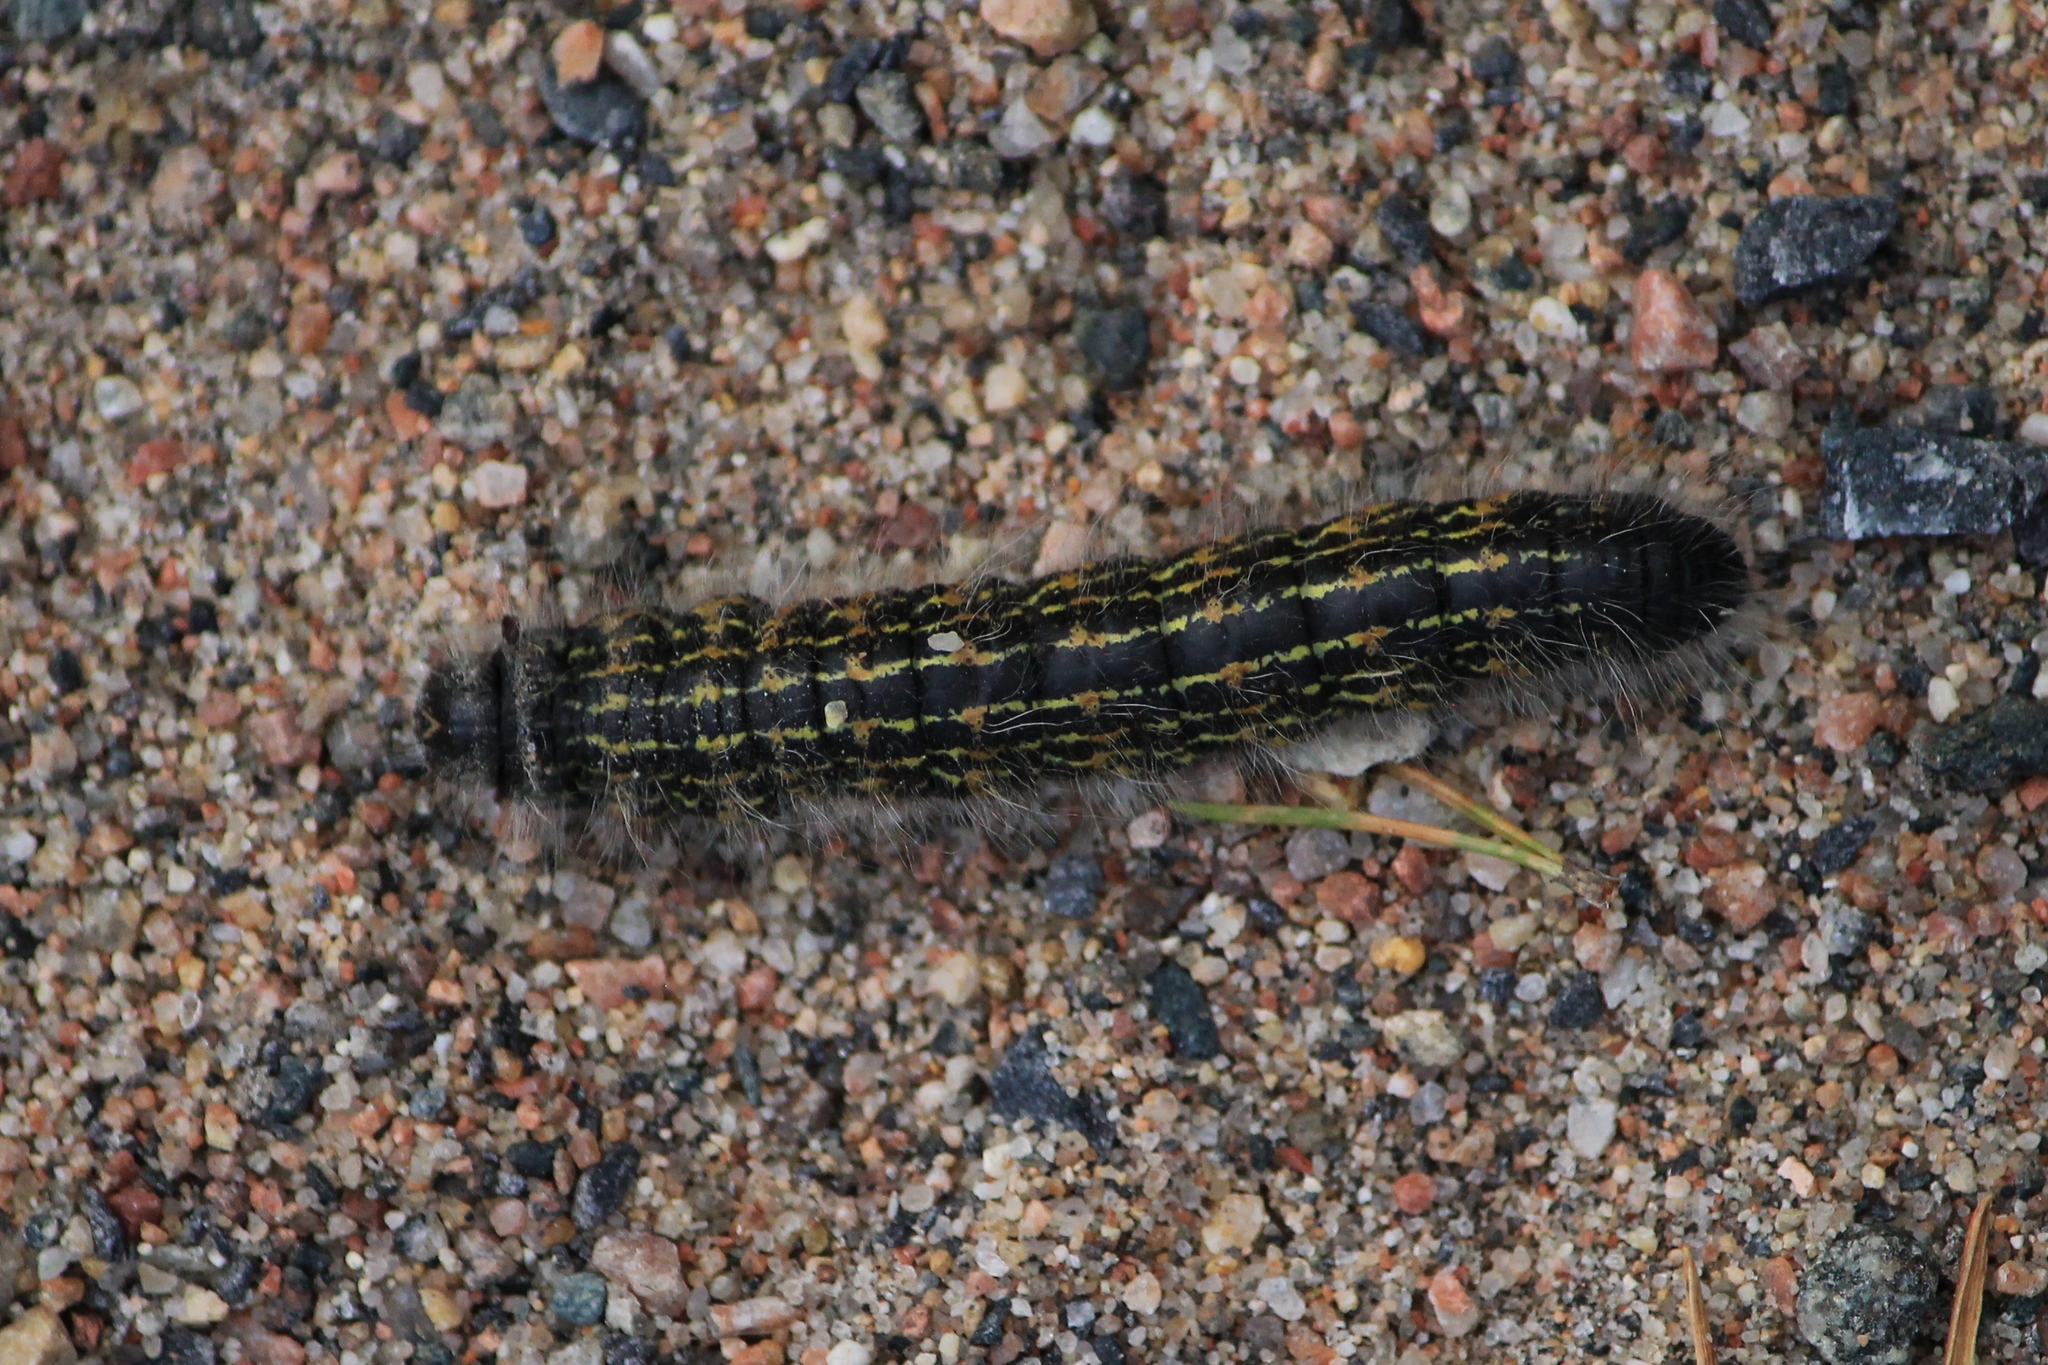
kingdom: Animalia
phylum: Arthropoda
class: Insecta
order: Lepidoptera
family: Notodontidae
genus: Phalera
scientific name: Phalera bucephala
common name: Buff-tip
